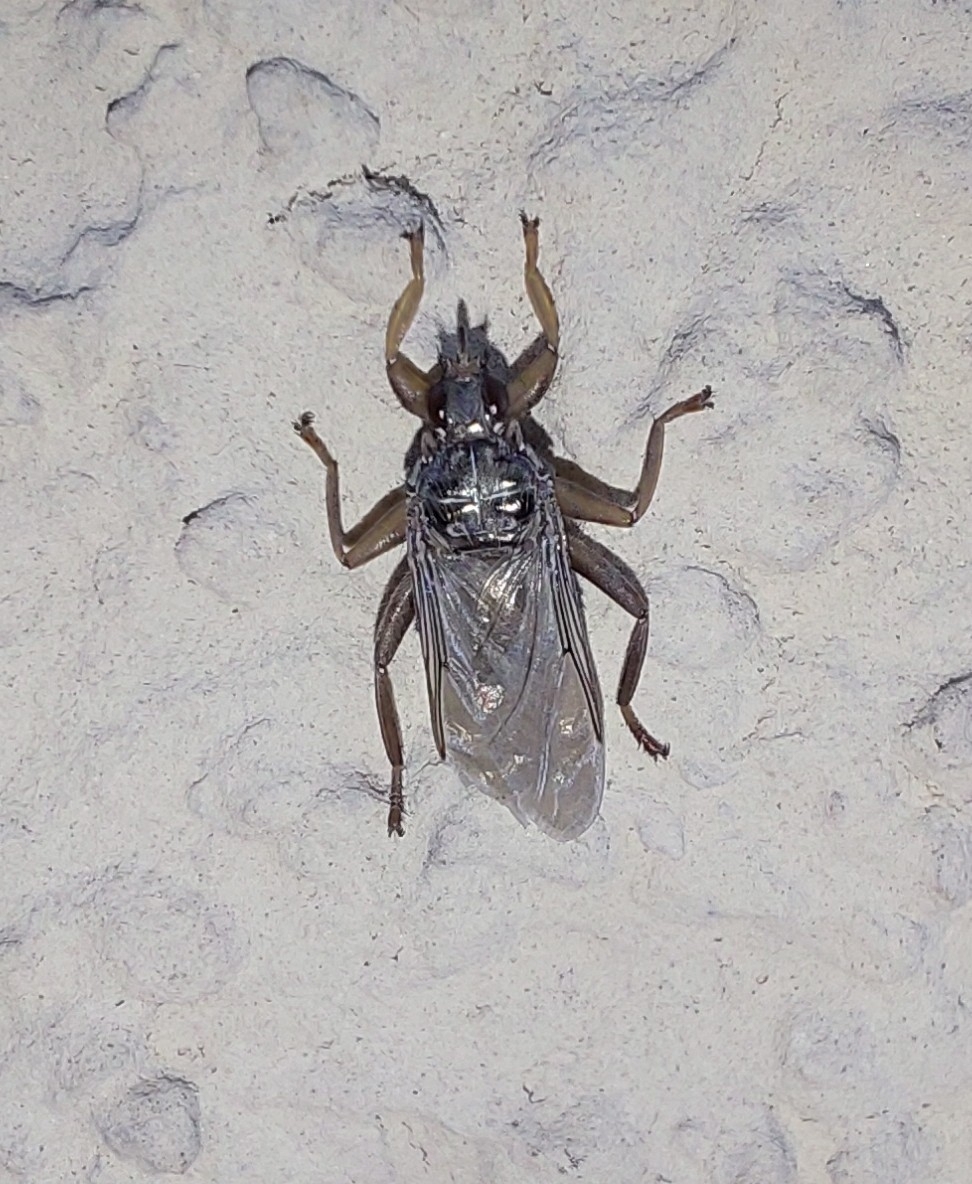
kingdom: Animalia
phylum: Arthropoda
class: Insecta
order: Diptera
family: Hippoboscidae
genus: Pseudolynchia
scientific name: Pseudolynchia canariensis
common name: Louse fly
